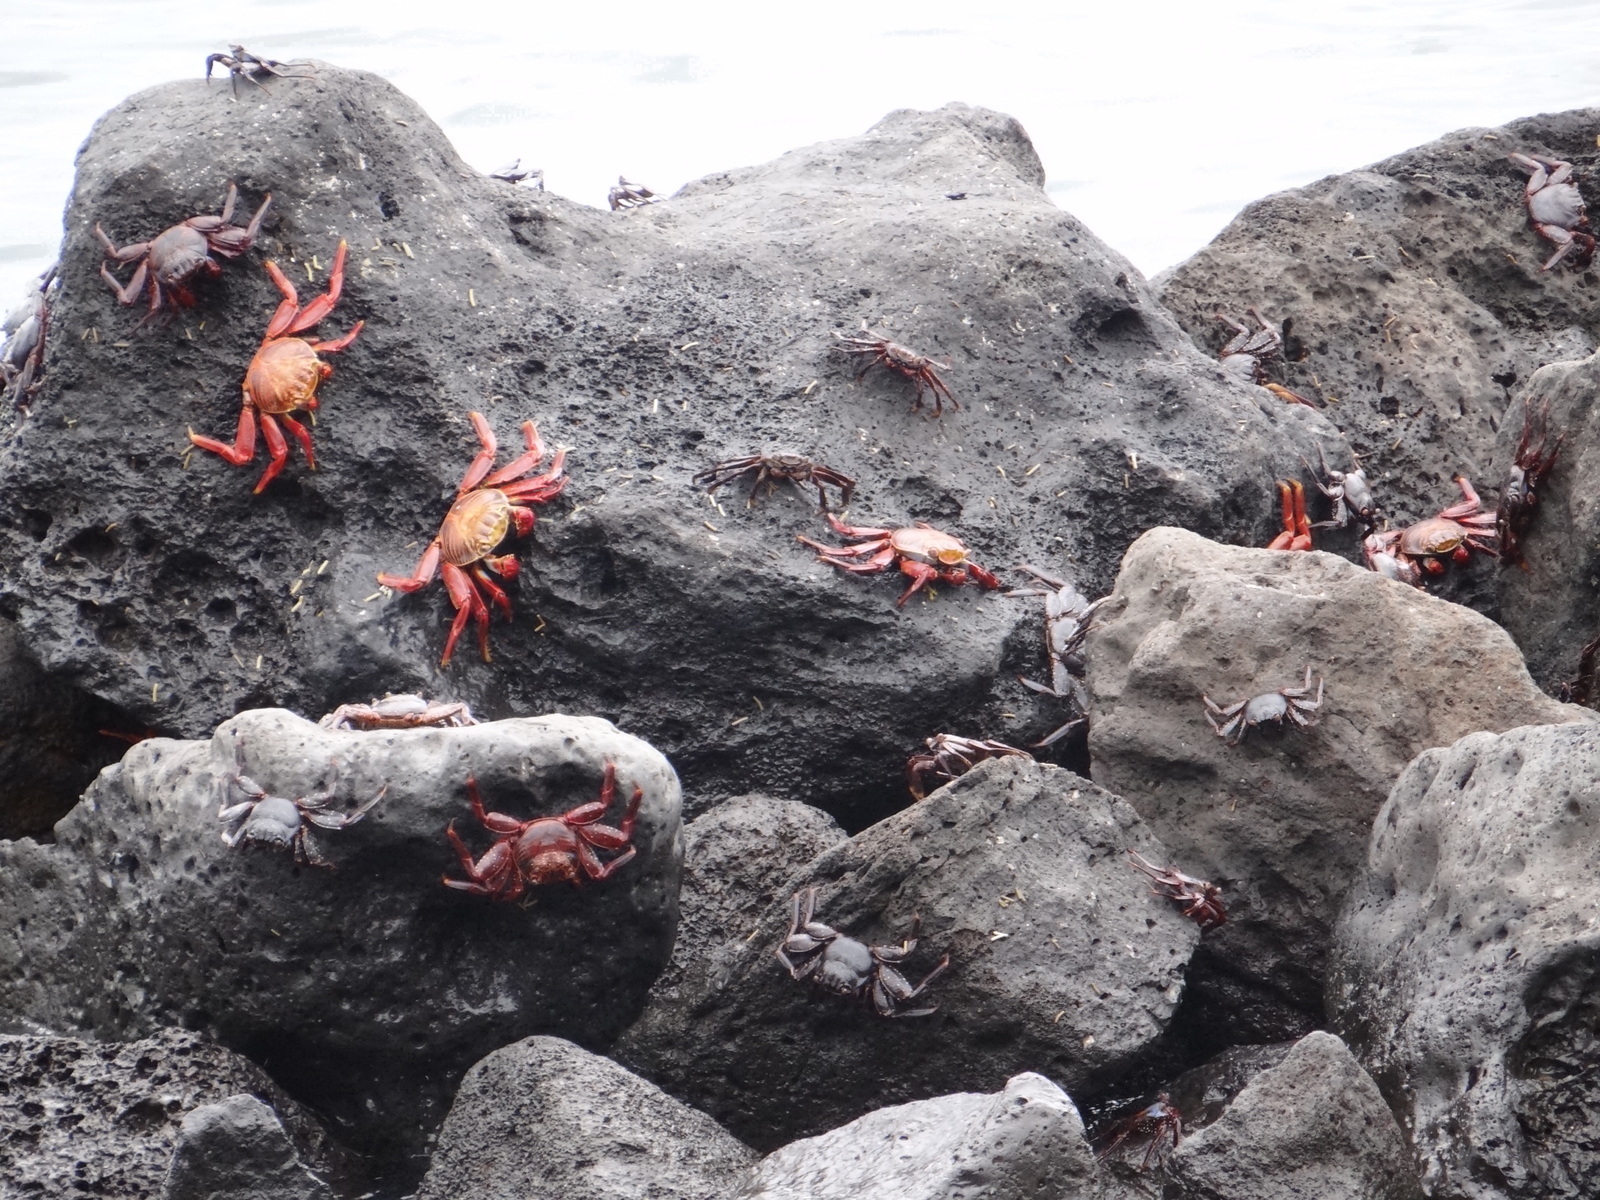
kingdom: Animalia
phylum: Arthropoda
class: Malacostraca
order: Decapoda
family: Grapsidae
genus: Grapsus
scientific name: Grapsus grapsus
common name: Sally lightfoot
